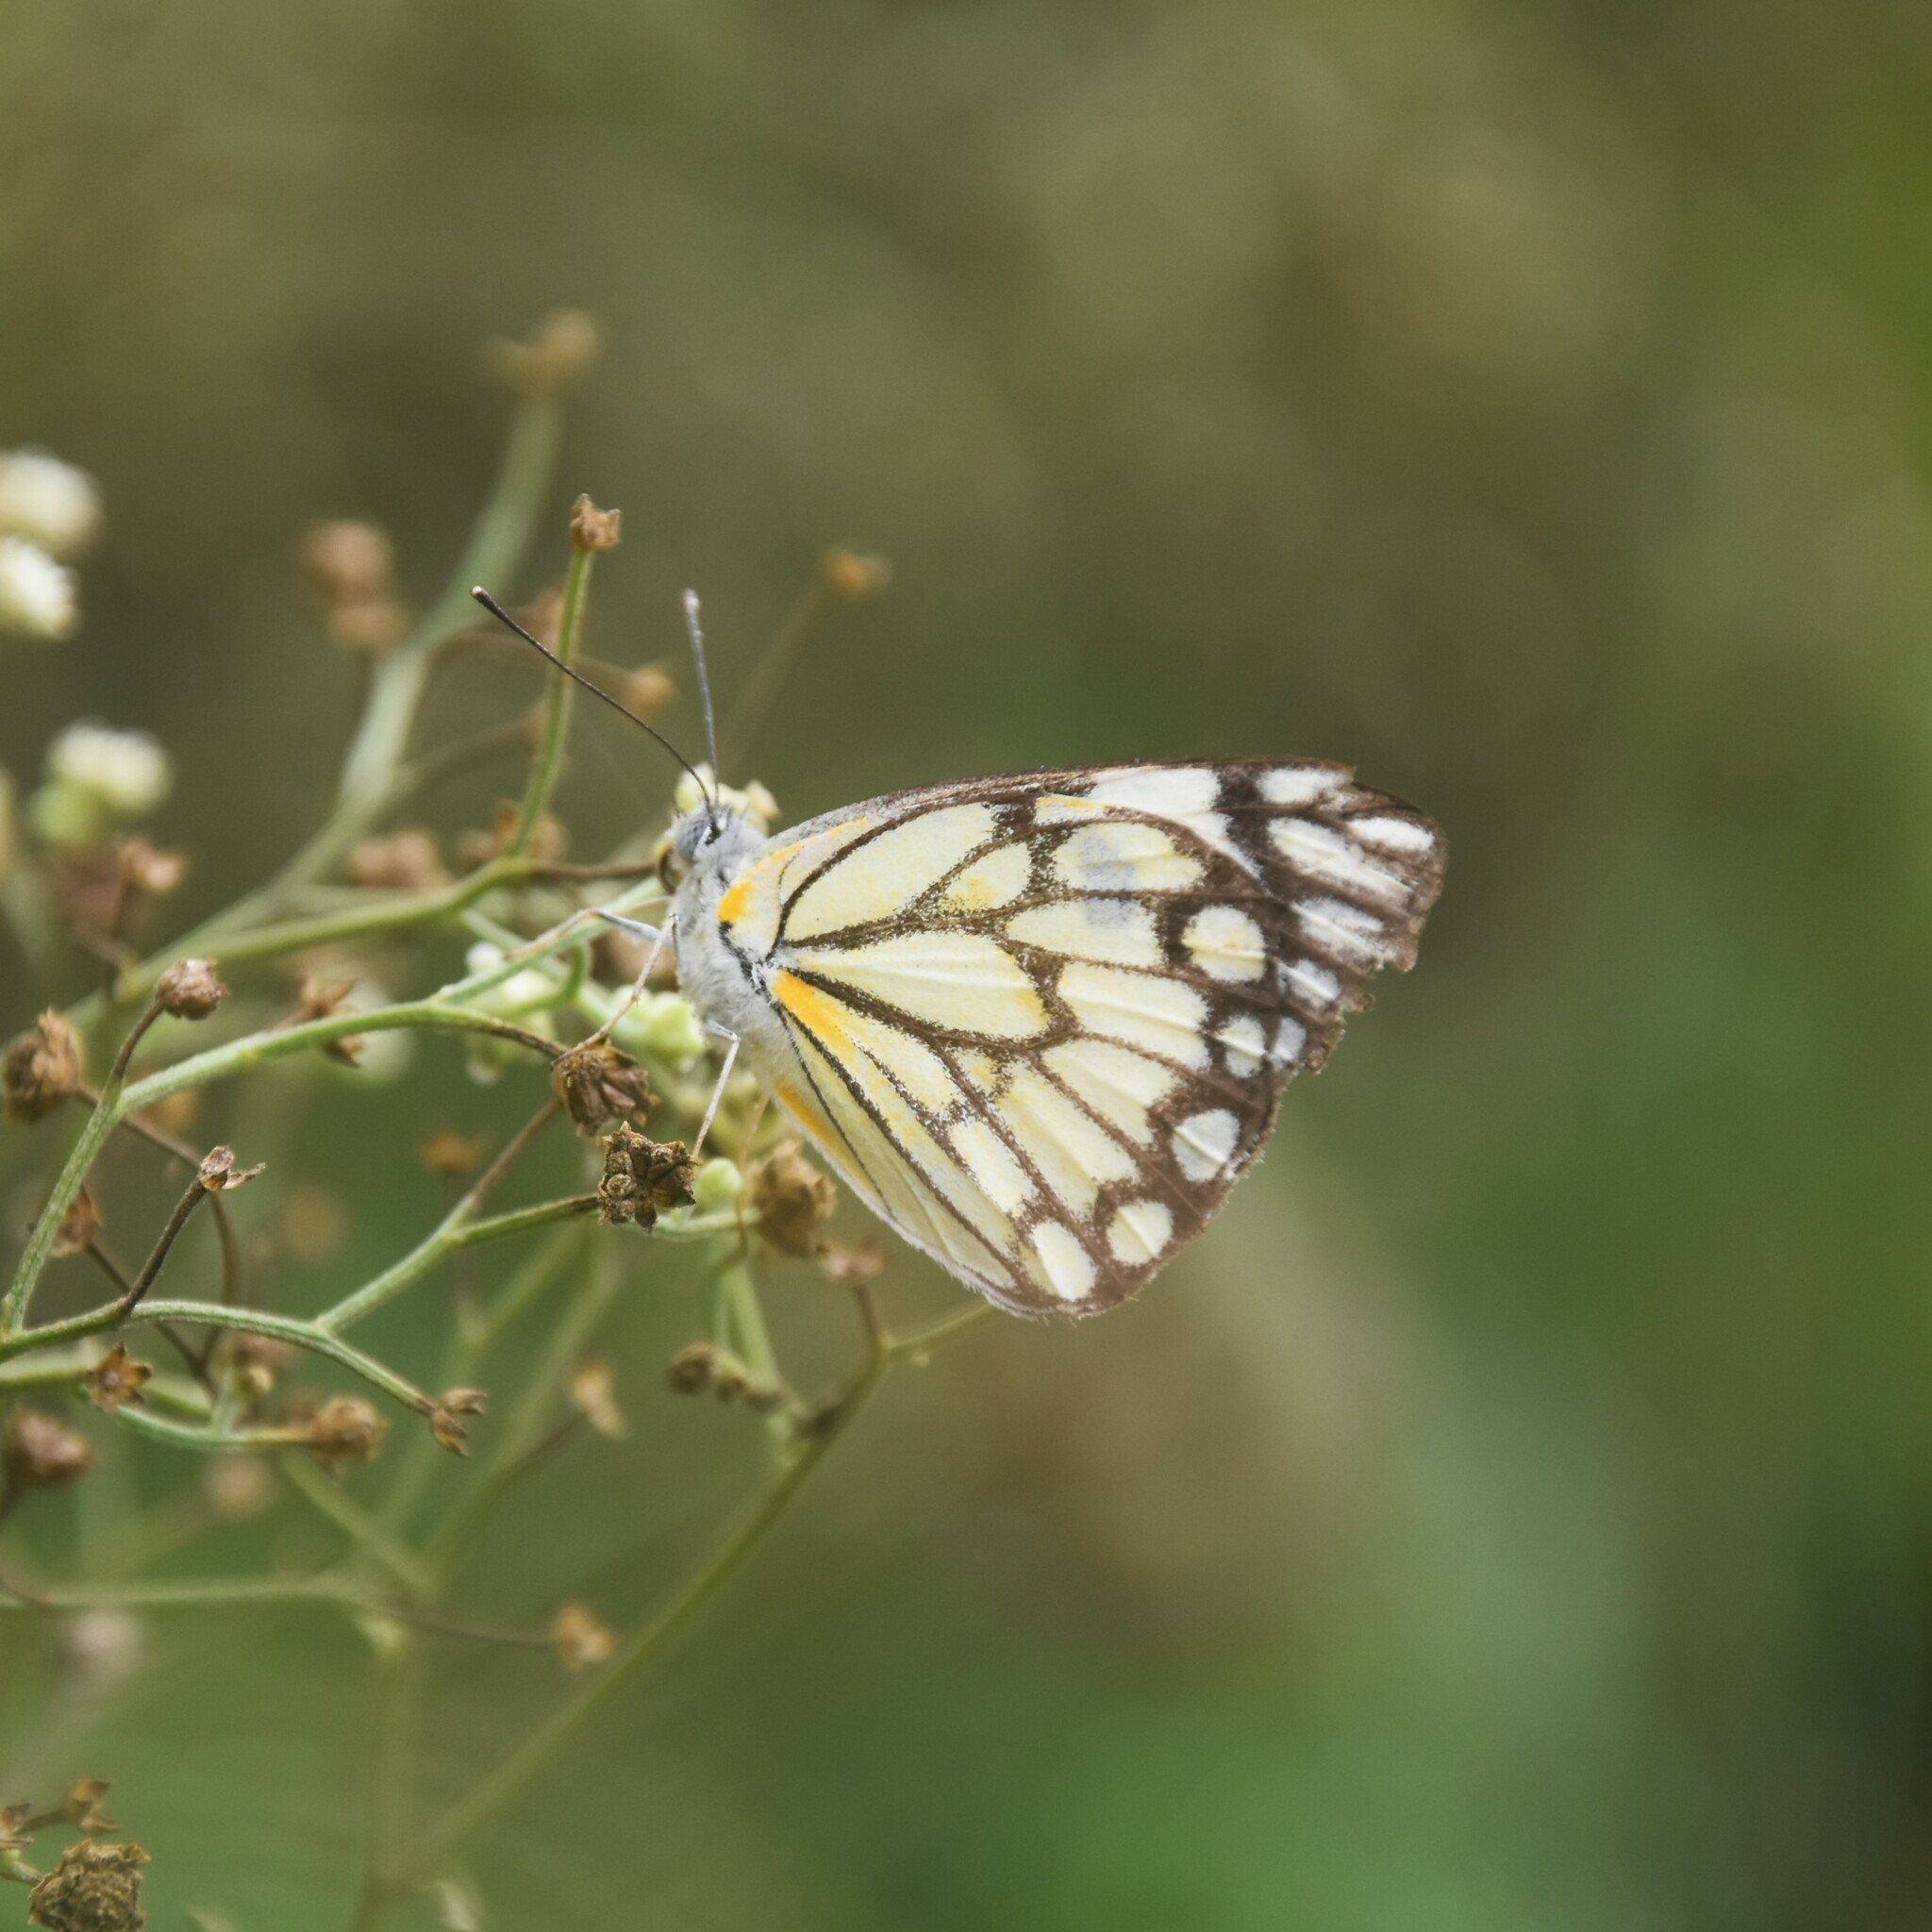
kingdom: Animalia
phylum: Arthropoda
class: Insecta
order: Lepidoptera
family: Pieridae
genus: Belenois
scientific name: Belenois aurota
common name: Brown-veined white
